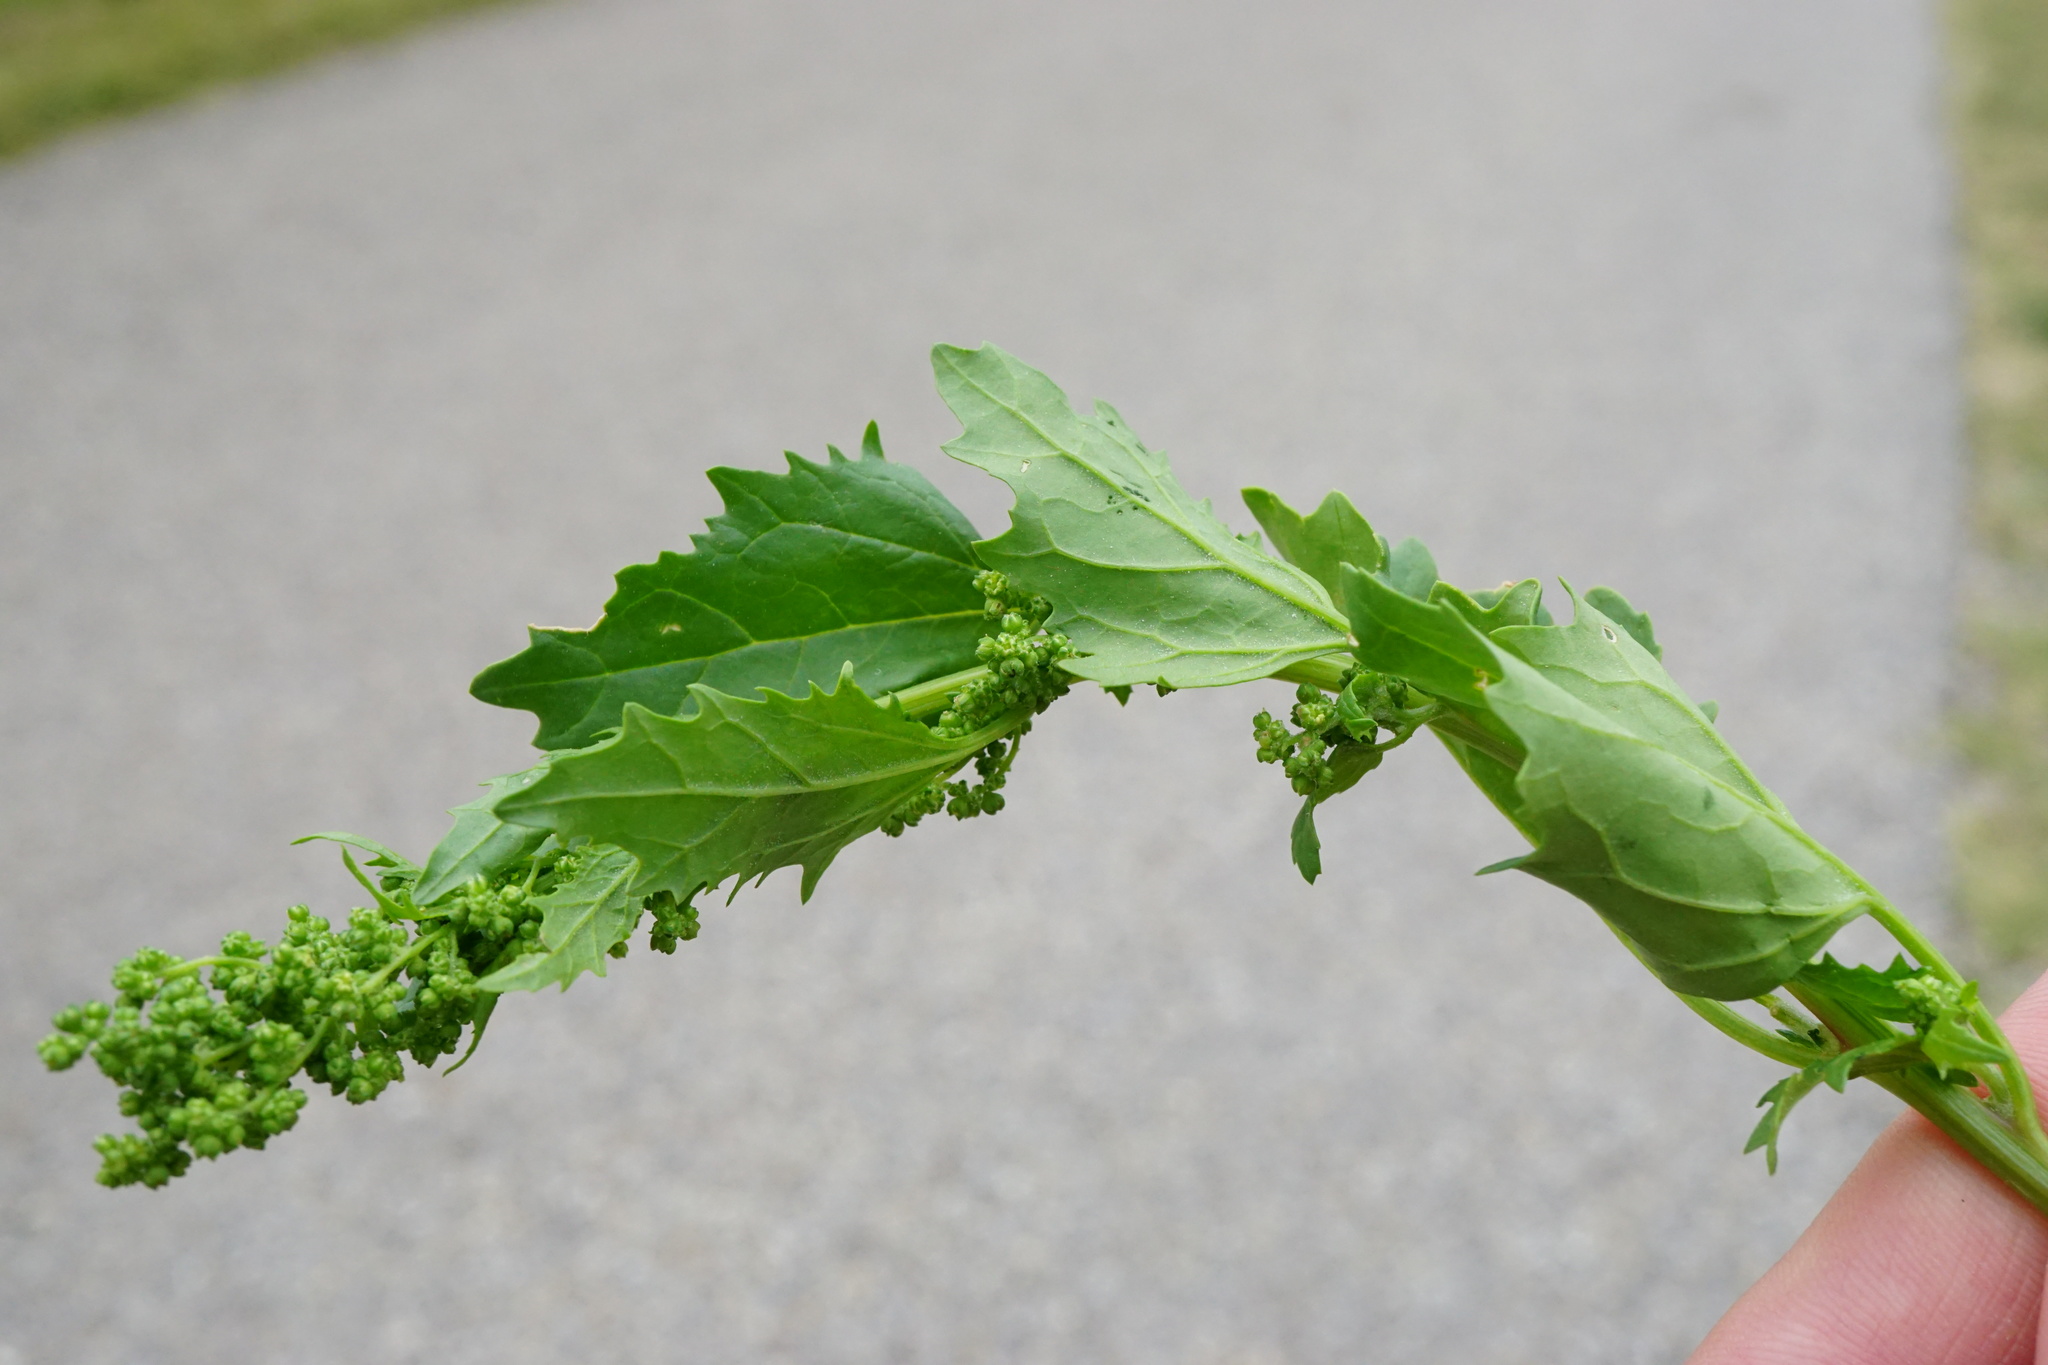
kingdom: Plantae
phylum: Tracheophyta
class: Magnoliopsida
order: Caryophyllales
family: Amaranthaceae
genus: Chenopodiastrum
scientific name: Chenopodiastrum murale
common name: Sowbane
